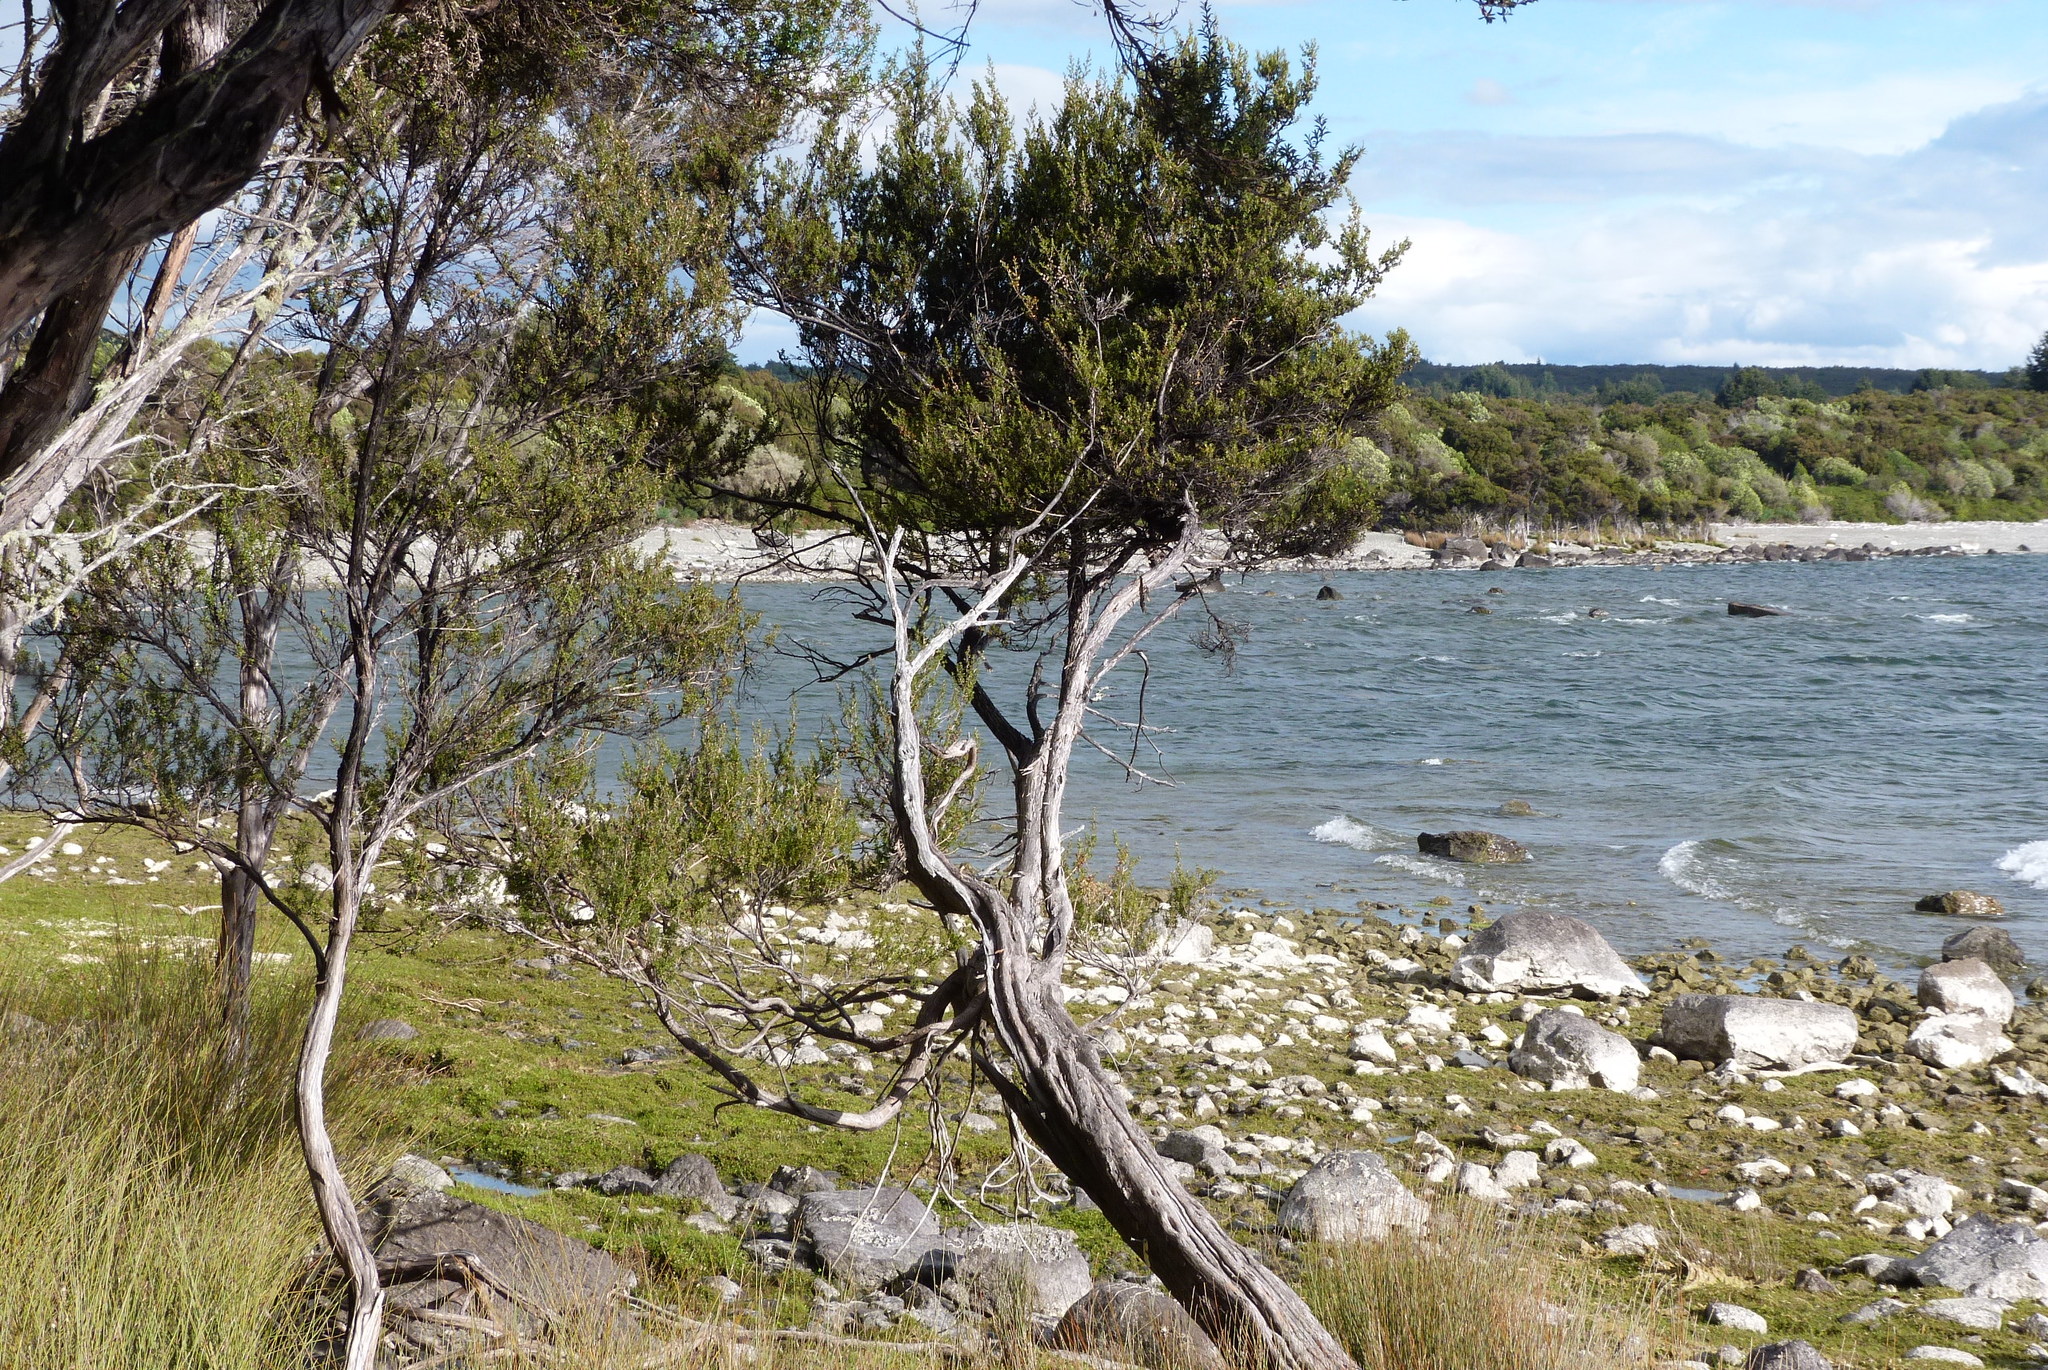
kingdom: Plantae
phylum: Tracheophyta
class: Magnoliopsida
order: Myrtales
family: Myrtaceae
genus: Leptospermum
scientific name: Leptospermum scoparium
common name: Broom tea-tree
